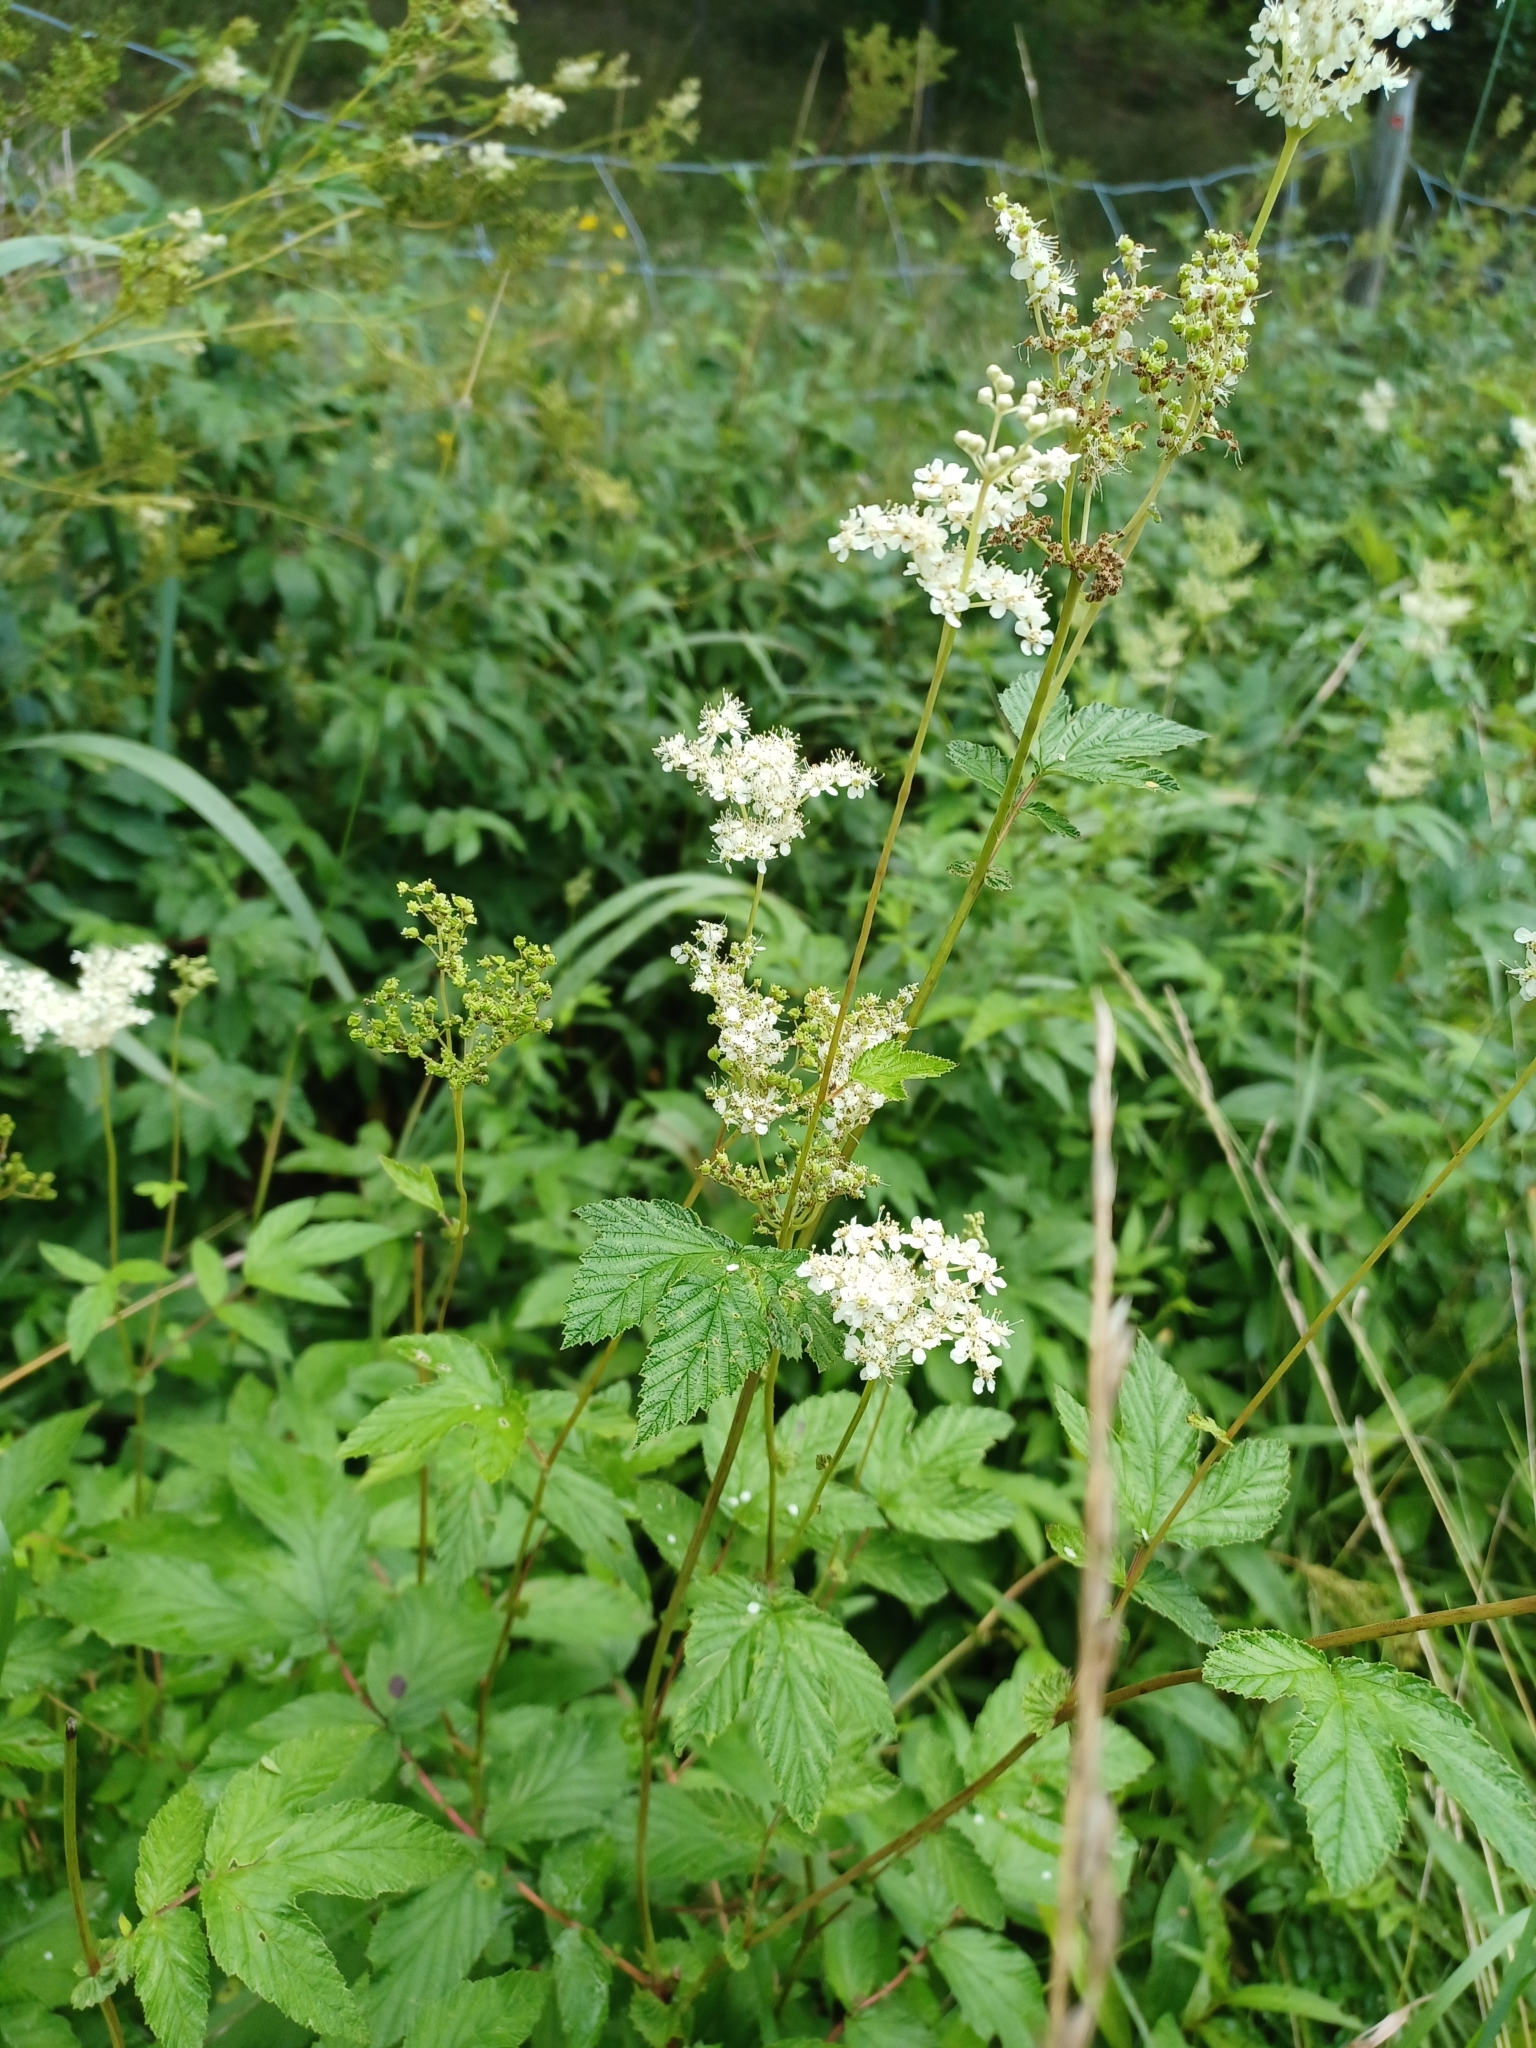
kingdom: Plantae
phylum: Tracheophyta
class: Magnoliopsida
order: Rosales
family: Rosaceae
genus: Filipendula
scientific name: Filipendula ulmaria
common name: Meadowsweet
